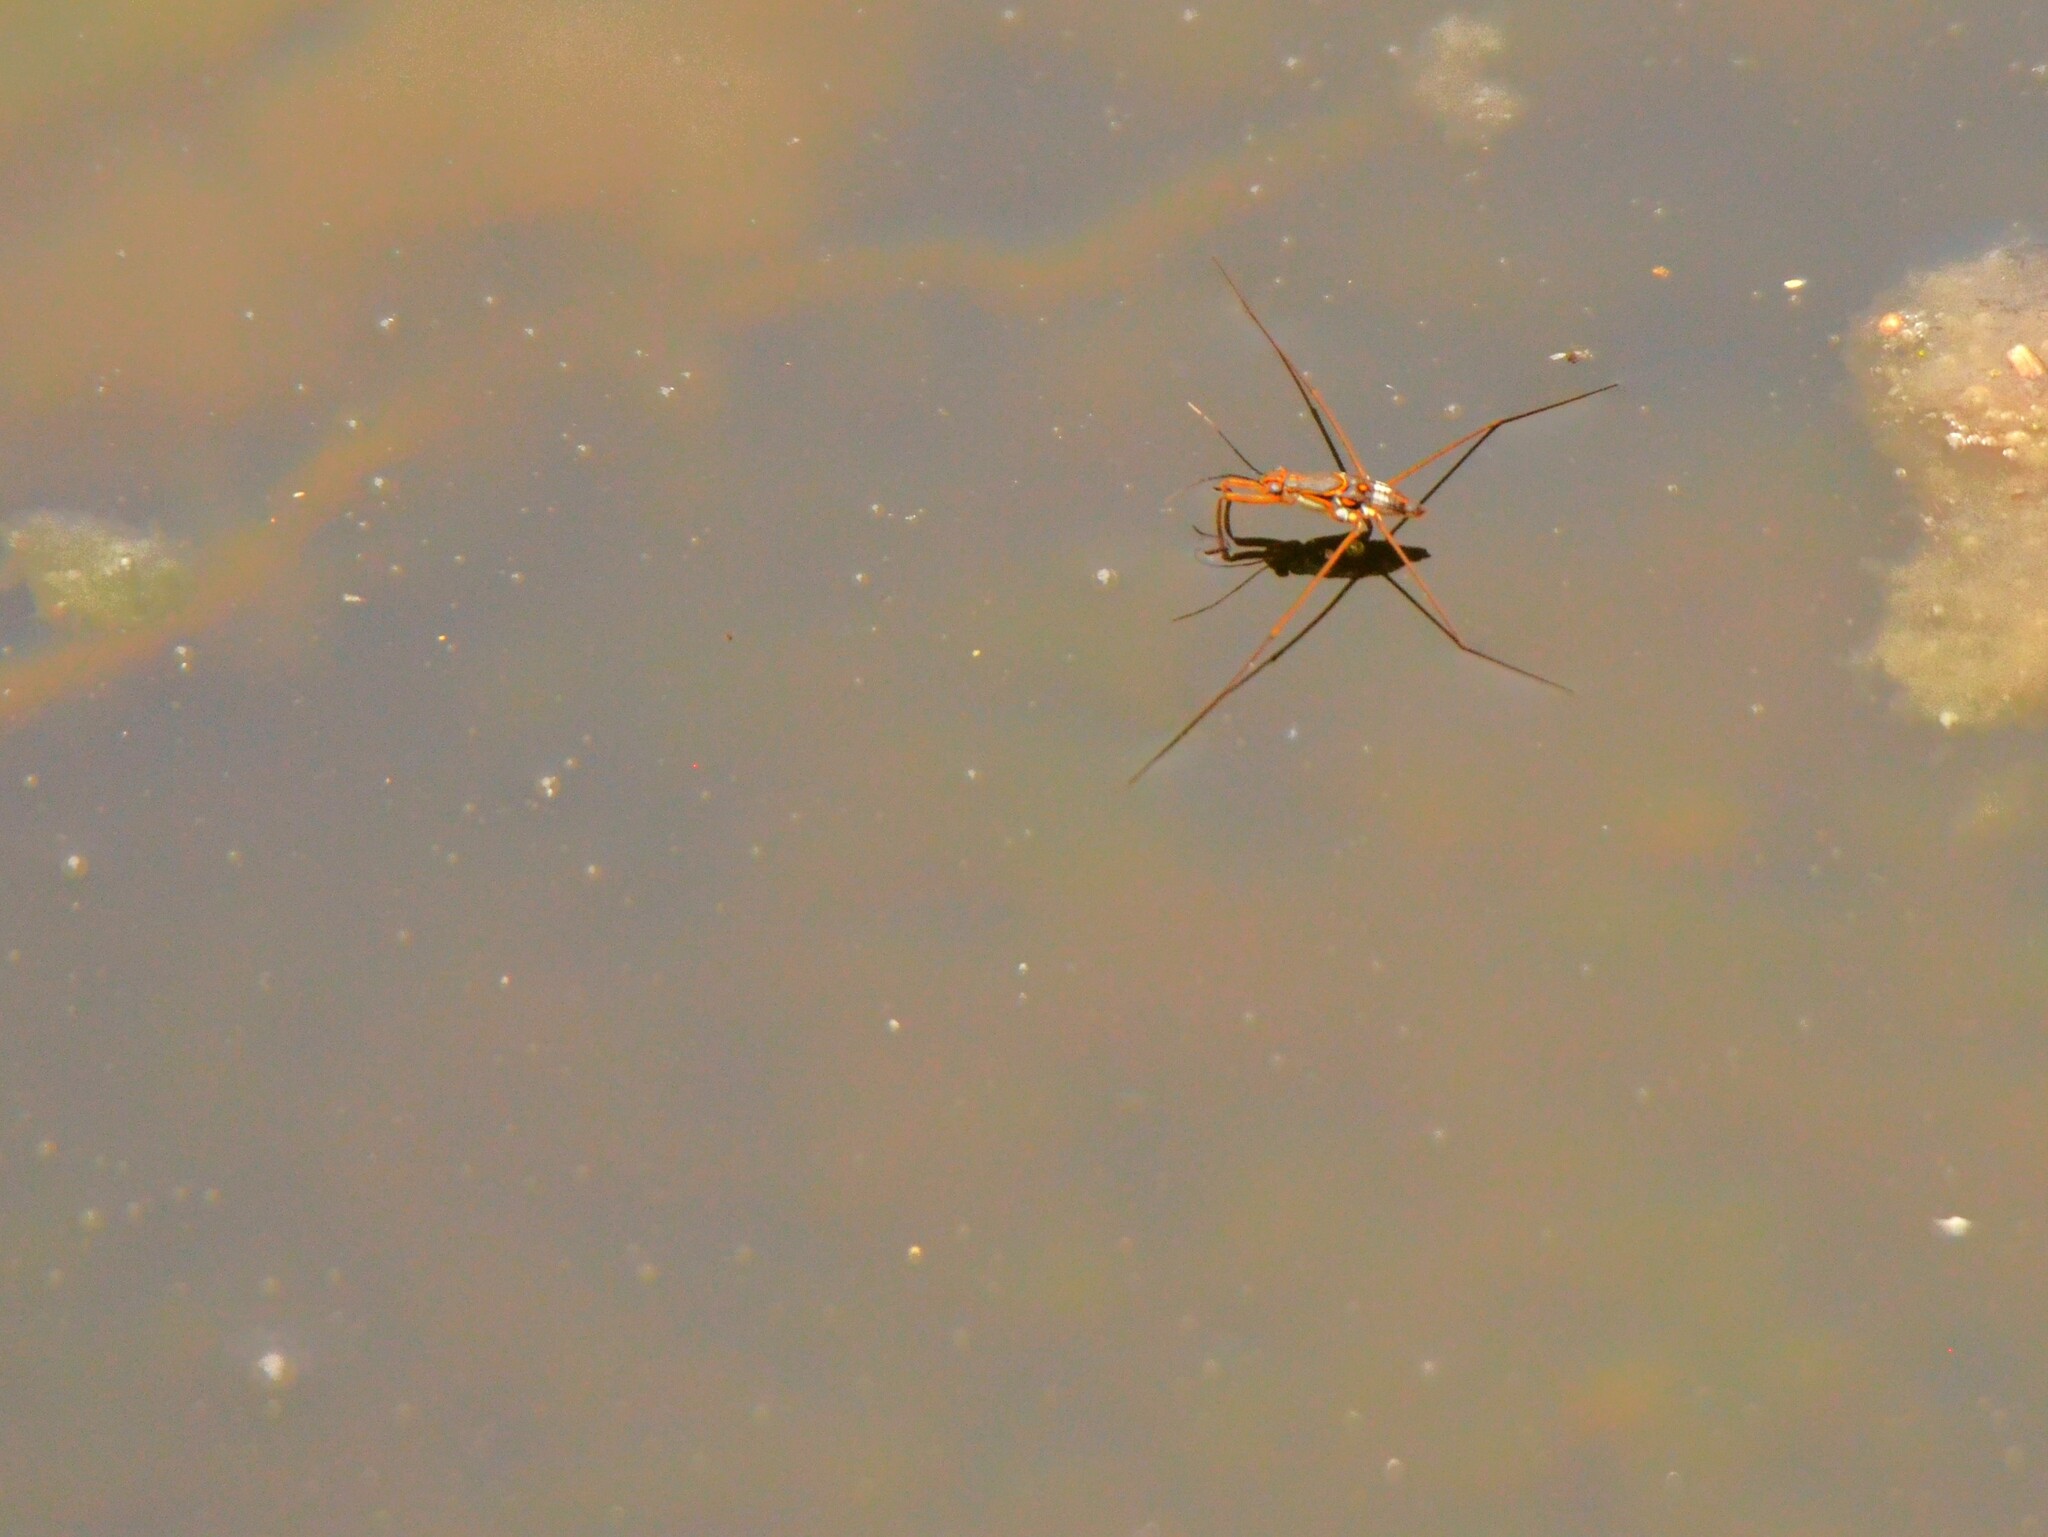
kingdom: Animalia
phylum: Arthropoda
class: Insecta
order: Hemiptera
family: Gerridae
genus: Limnogonus
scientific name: Limnogonus fossarum
